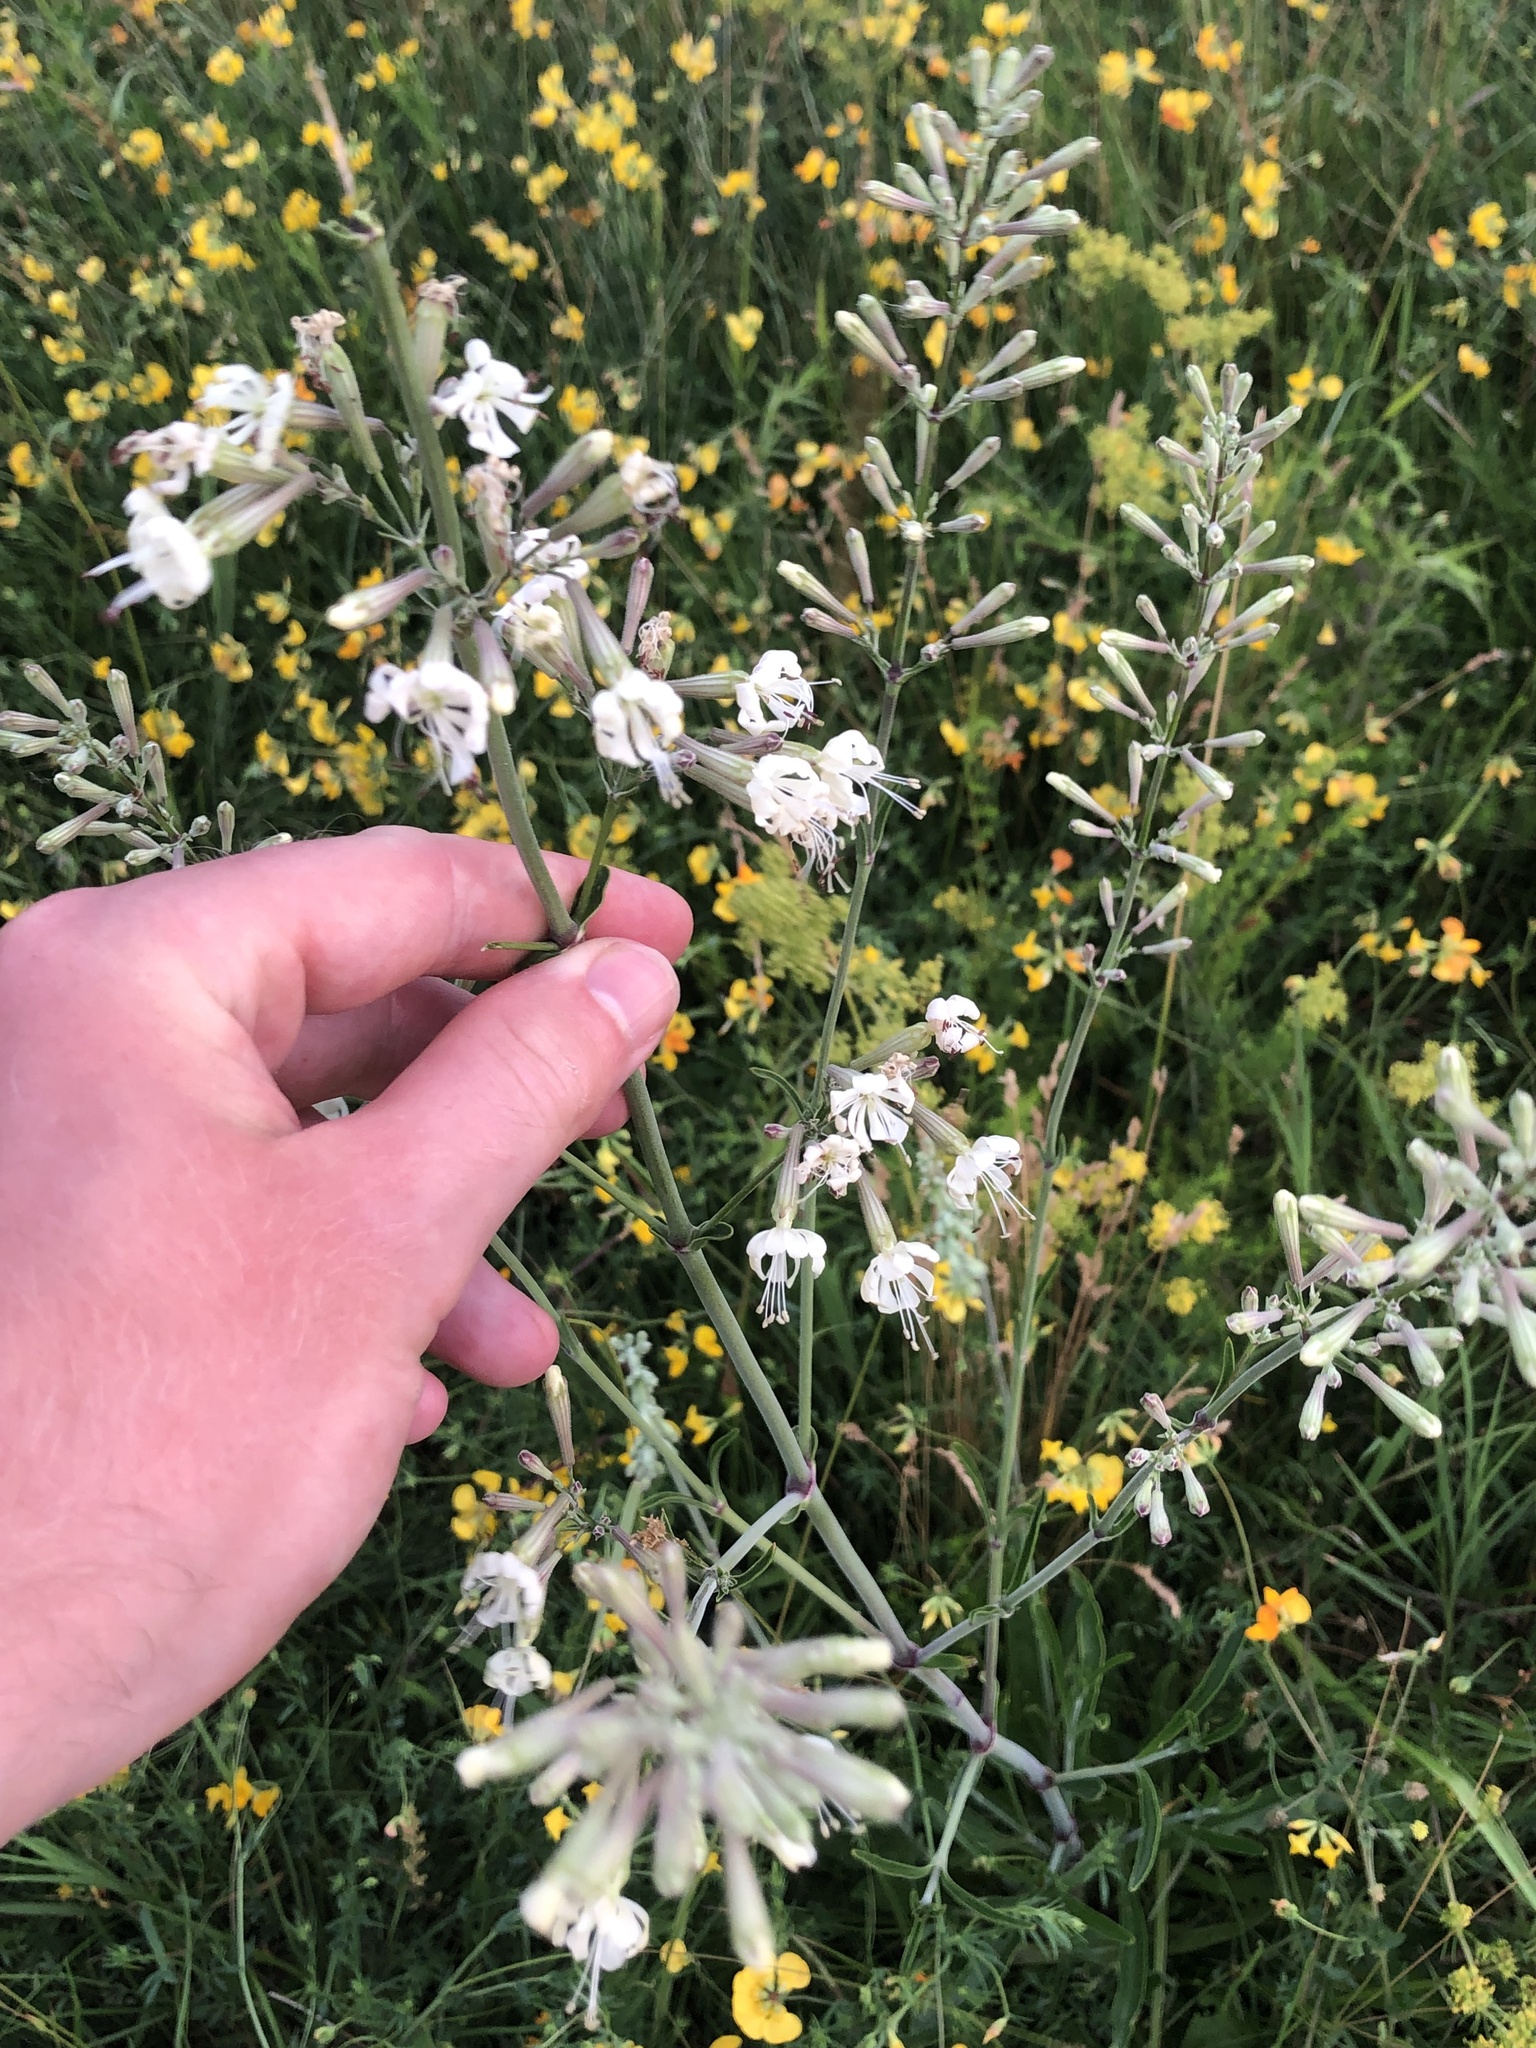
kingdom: Plantae
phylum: Tracheophyta
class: Magnoliopsida
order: Caryophyllales
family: Caryophyllaceae
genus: Silene
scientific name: Silene multiflora
